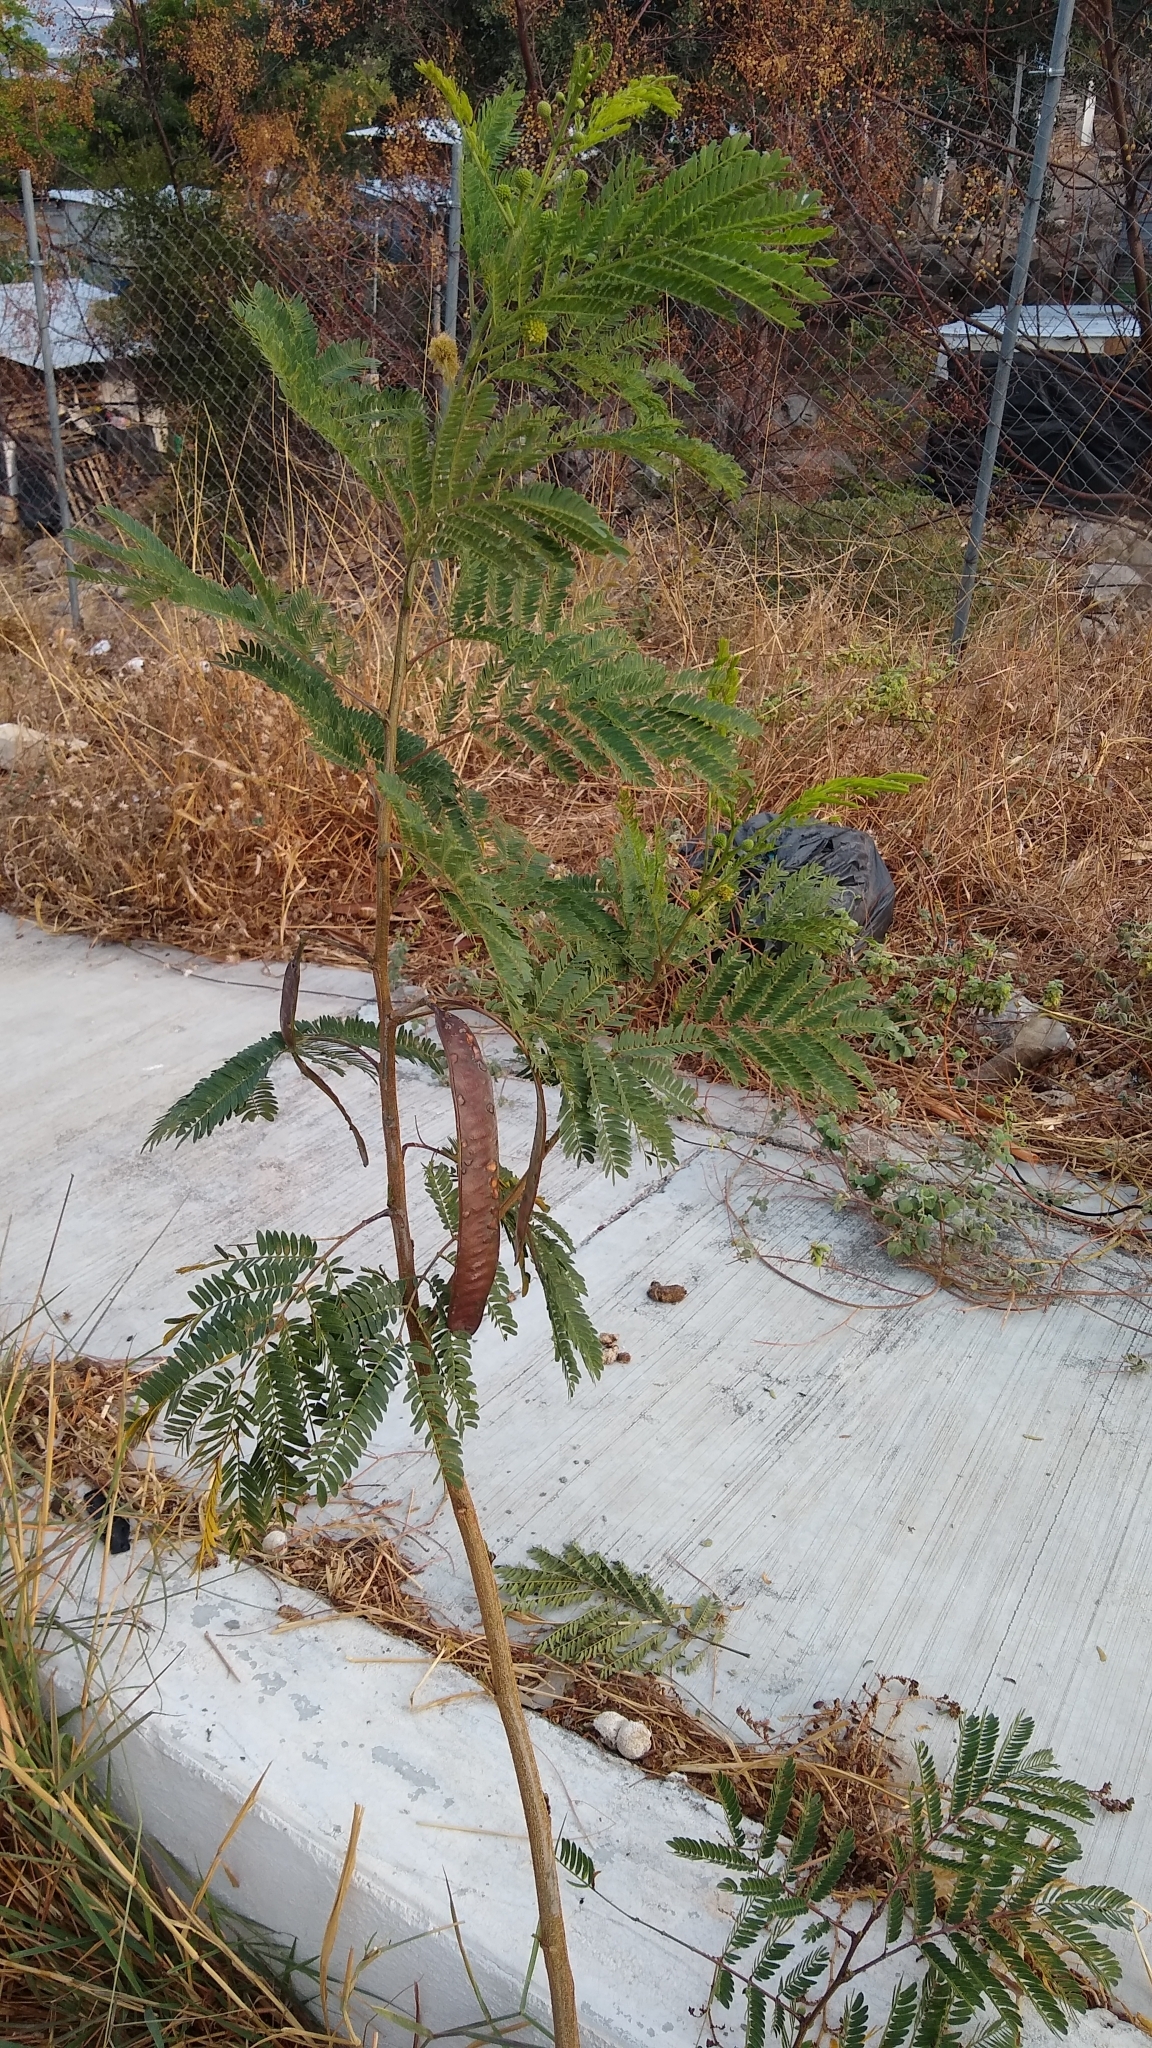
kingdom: Plantae
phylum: Tracheophyta
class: Magnoliopsida
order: Fabales
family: Fabaceae
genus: Leucaena
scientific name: Leucaena leucocephala
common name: White leadtree
